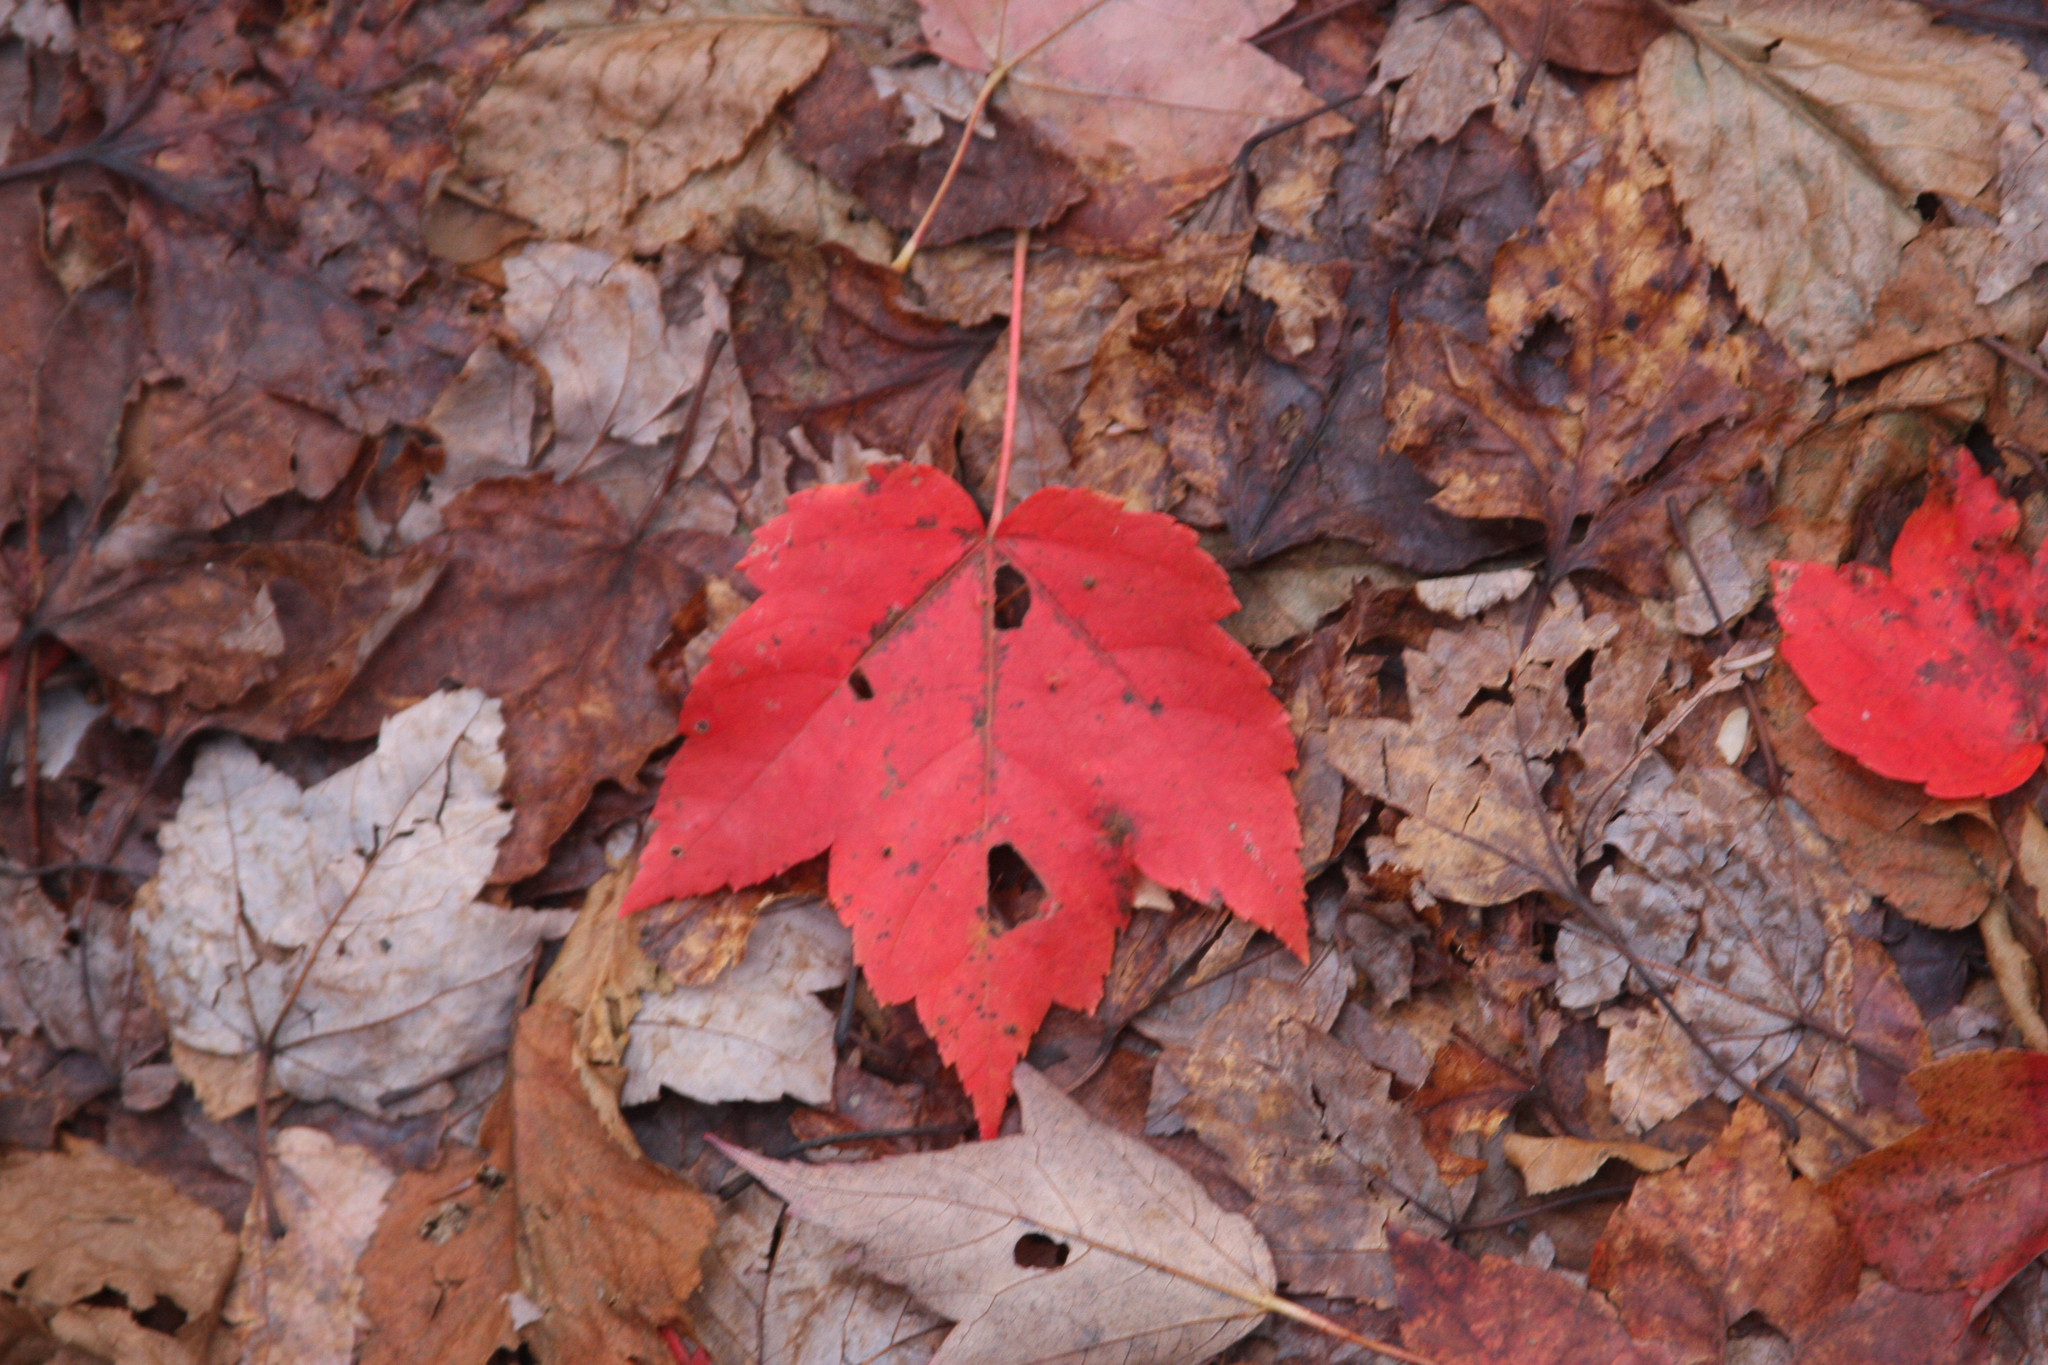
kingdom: Plantae
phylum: Tracheophyta
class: Magnoliopsida
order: Sapindales
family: Sapindaceae
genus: Acer
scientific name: Acer rubrum
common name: Red maple
